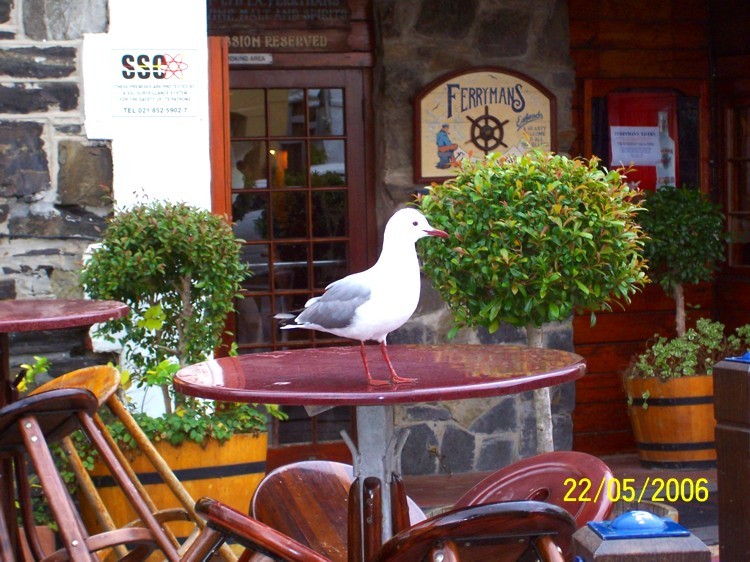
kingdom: Animalia
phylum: Chordata
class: Aves
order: Charadriiformes
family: Laridae
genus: Chroicocephalus
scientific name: Chroicocephalus hartlaubii
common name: Hartlaub's gull
